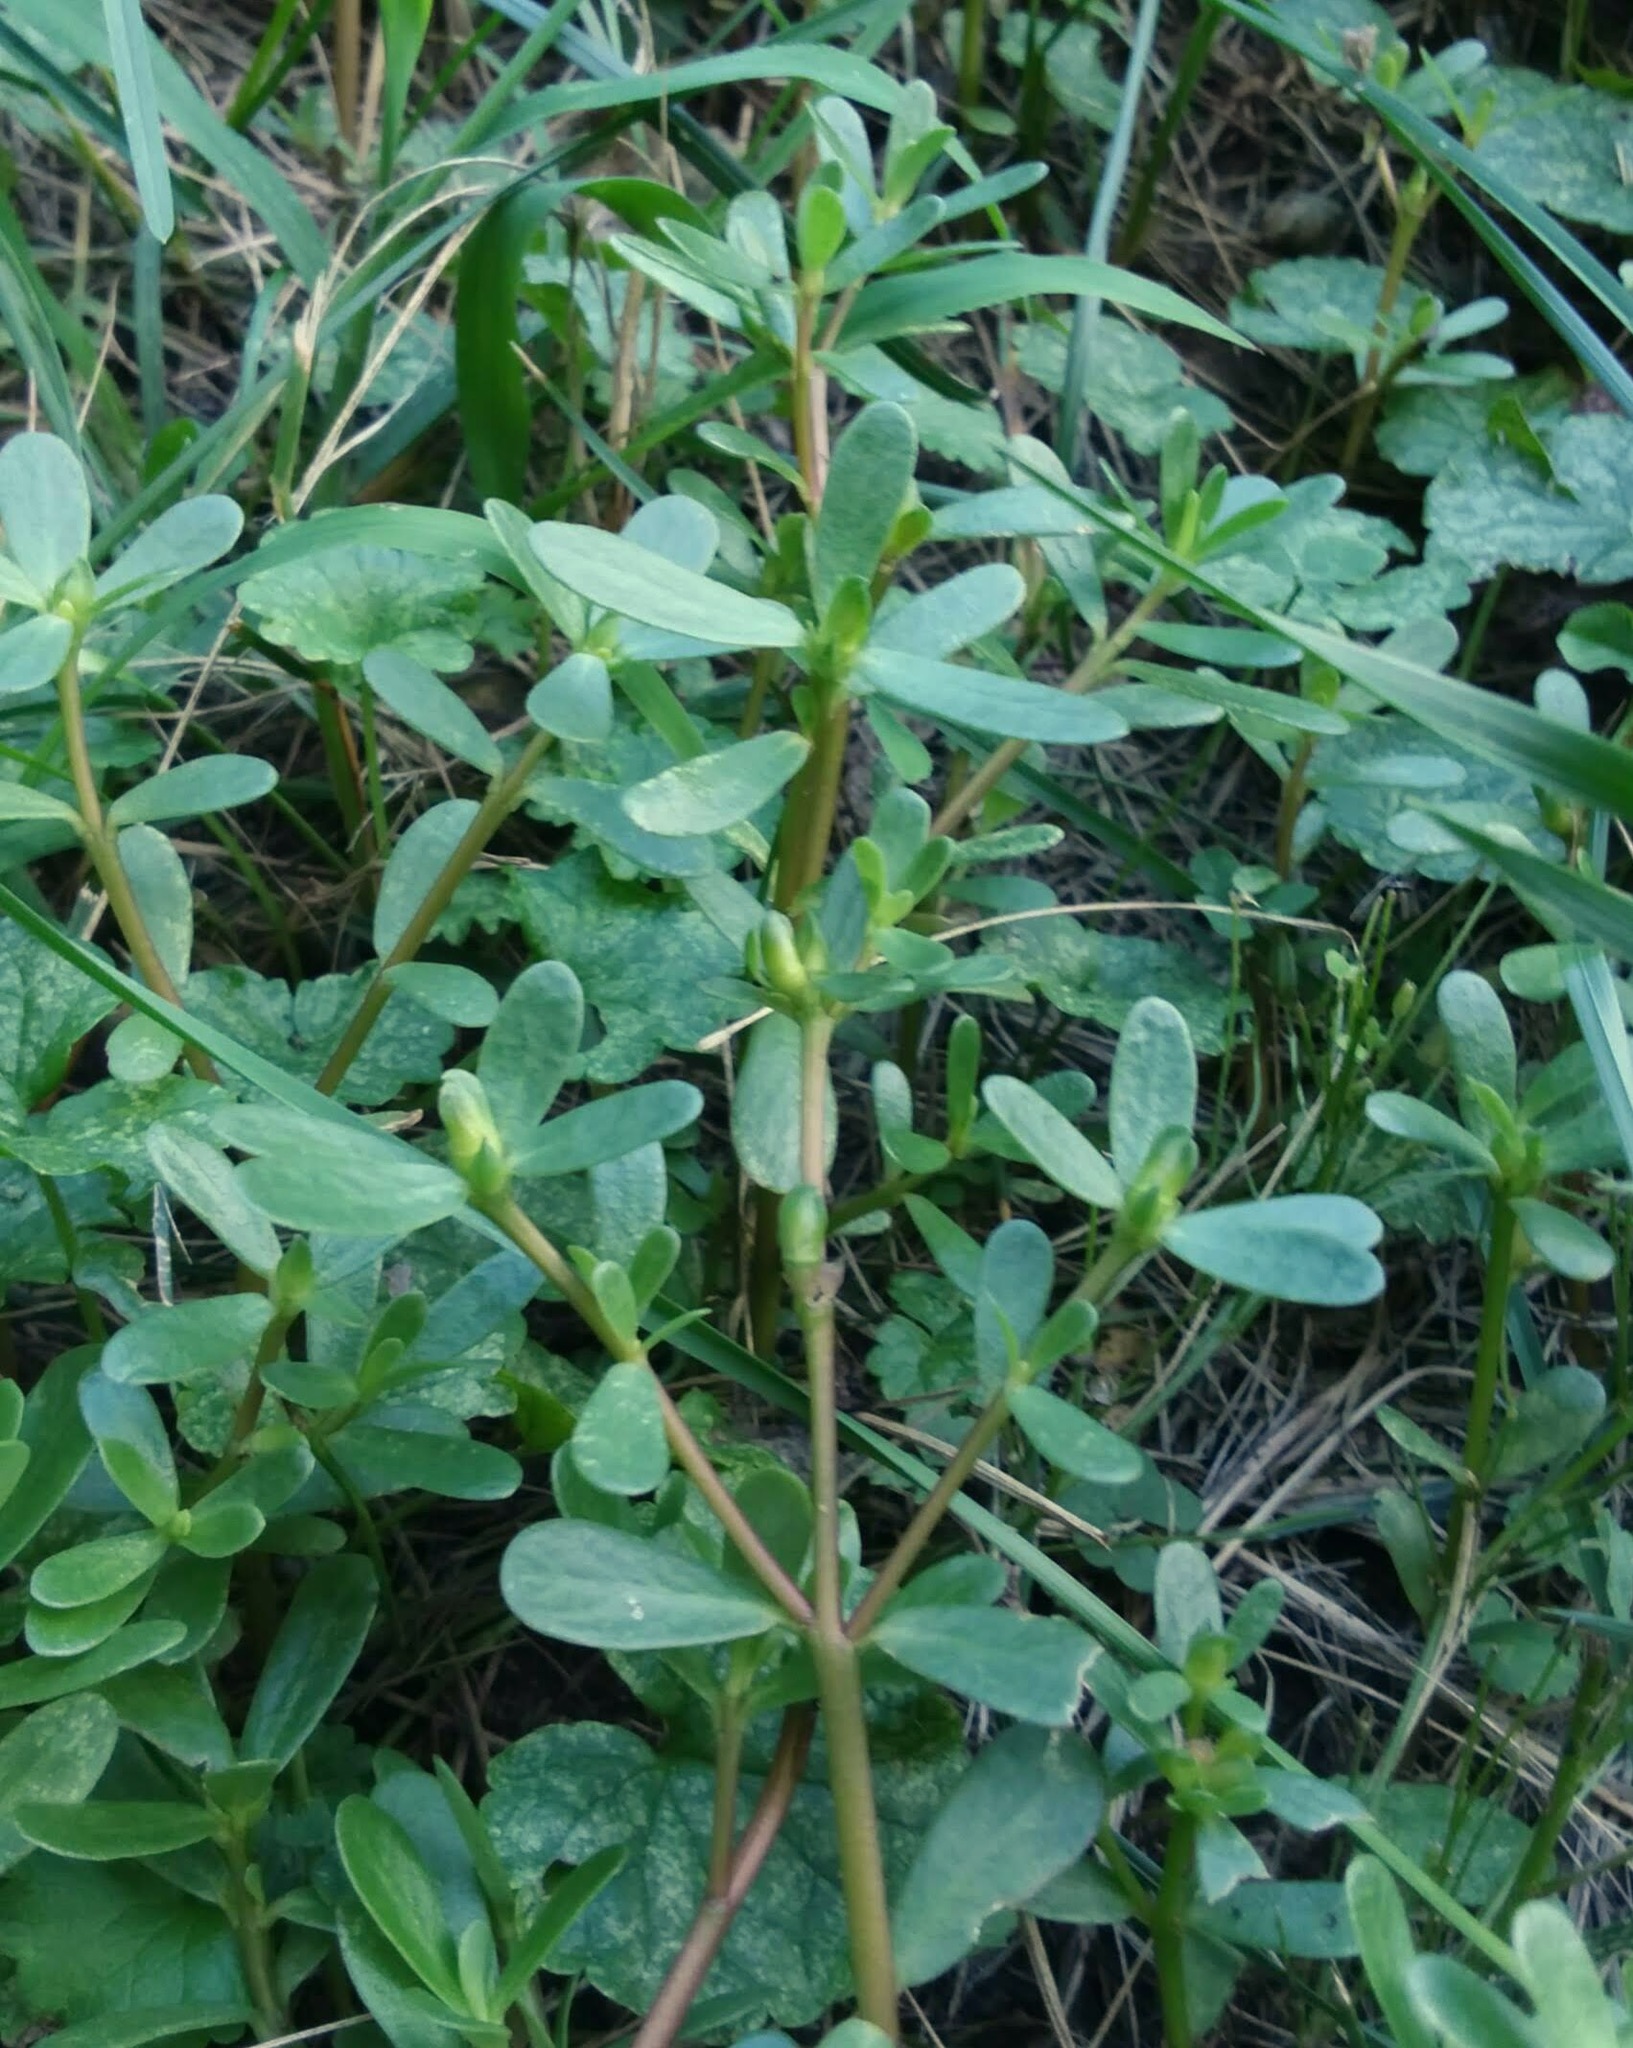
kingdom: Plantae
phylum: Tracheophyta
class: Magnoliopsida
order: Caryophyllales
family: Portulacaceae
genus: Portulaca
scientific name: Portulaca oleracea
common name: Common purslane
